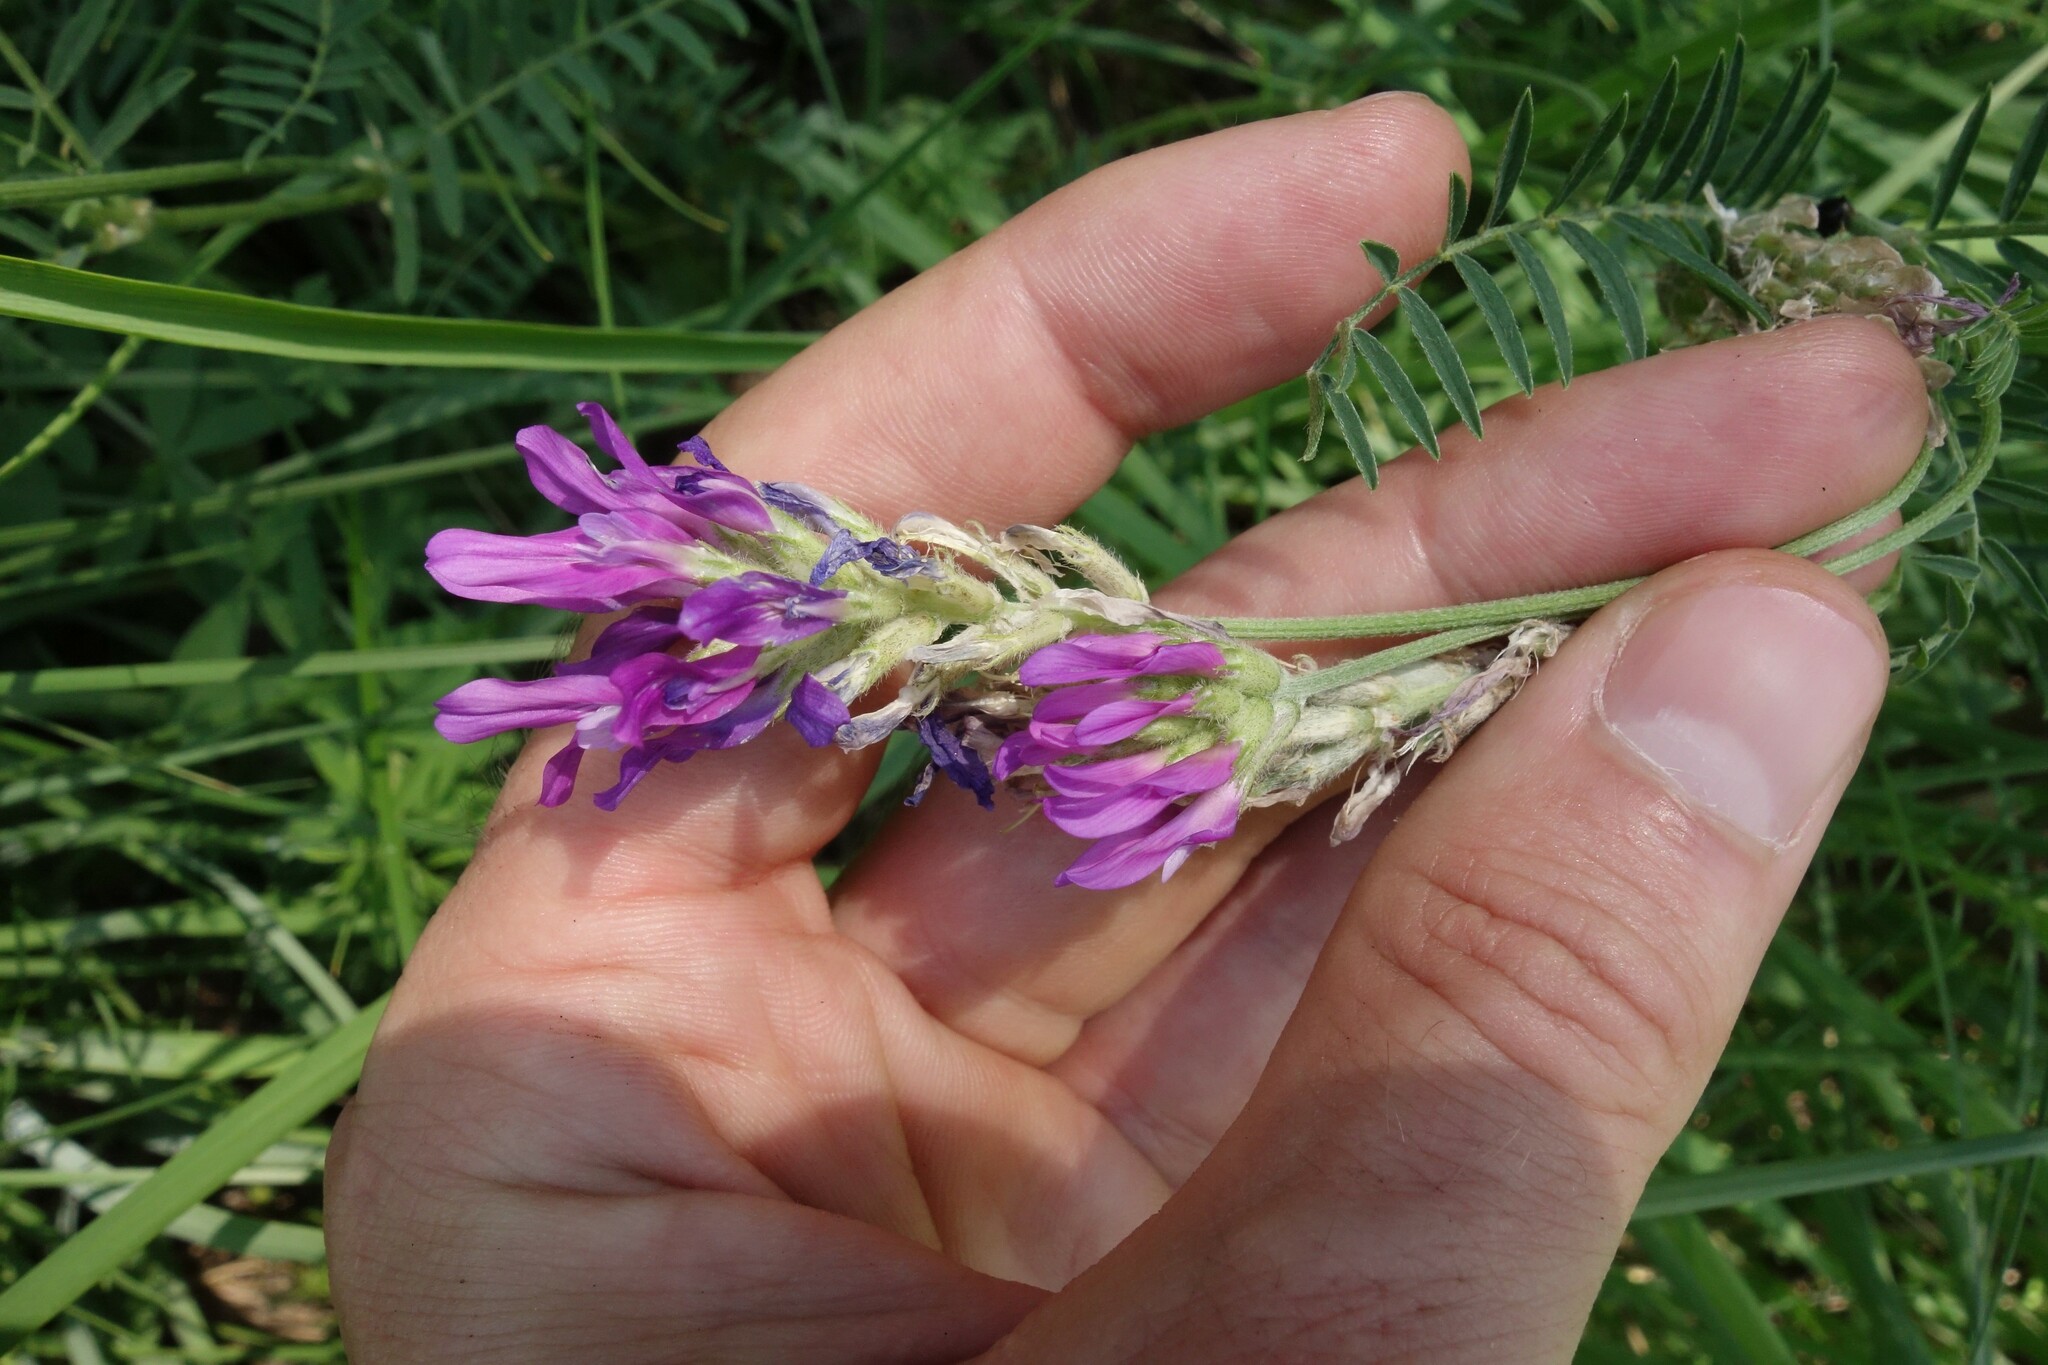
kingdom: Plantae
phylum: Tracheophyta
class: Magnoliopsida
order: Fabales
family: Fabaceae
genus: Astragalus
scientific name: Astragalus onobrychis
